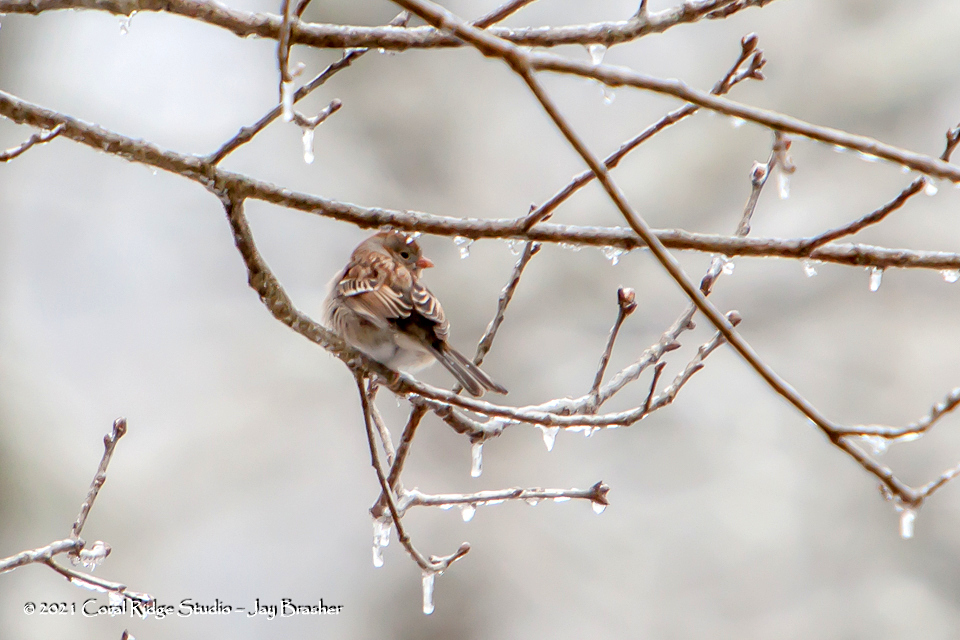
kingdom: Animalia
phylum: Chordata
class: Aves
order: Passeriformes
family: Passerellidae
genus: Spizella
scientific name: Spizella pusilla
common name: Field sparrow
